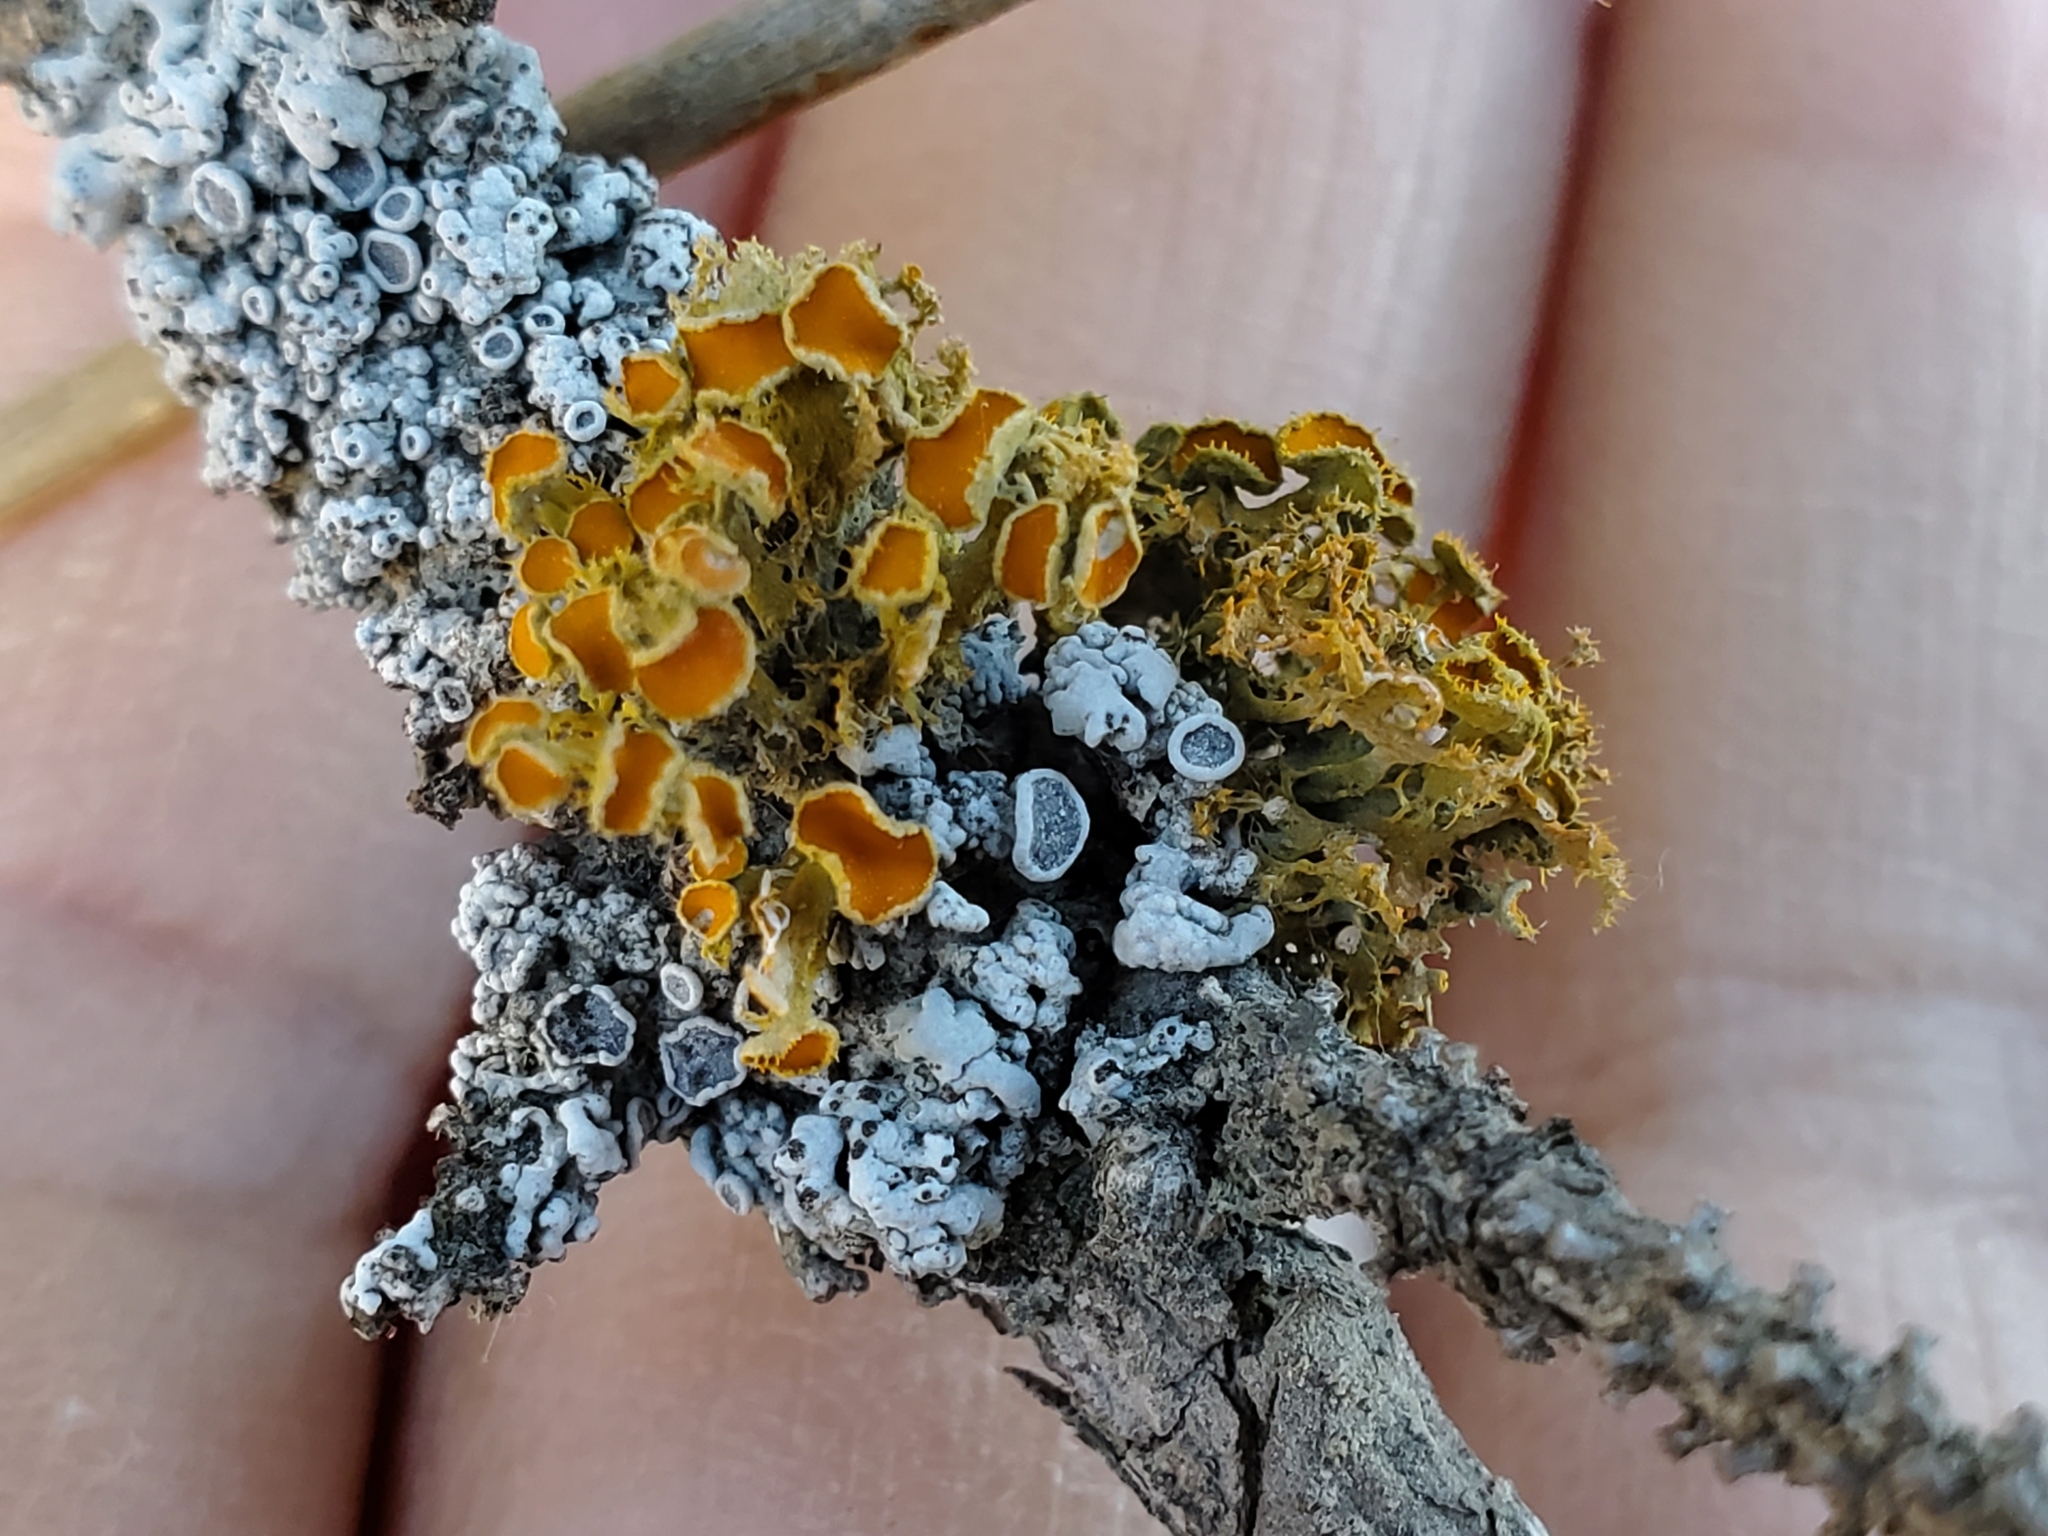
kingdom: Fungi
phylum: Ascomycota
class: Lecanoromycetes
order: Teloschistales
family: Teloschistaceae
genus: Niorma
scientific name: Niorma chrysophthalma
